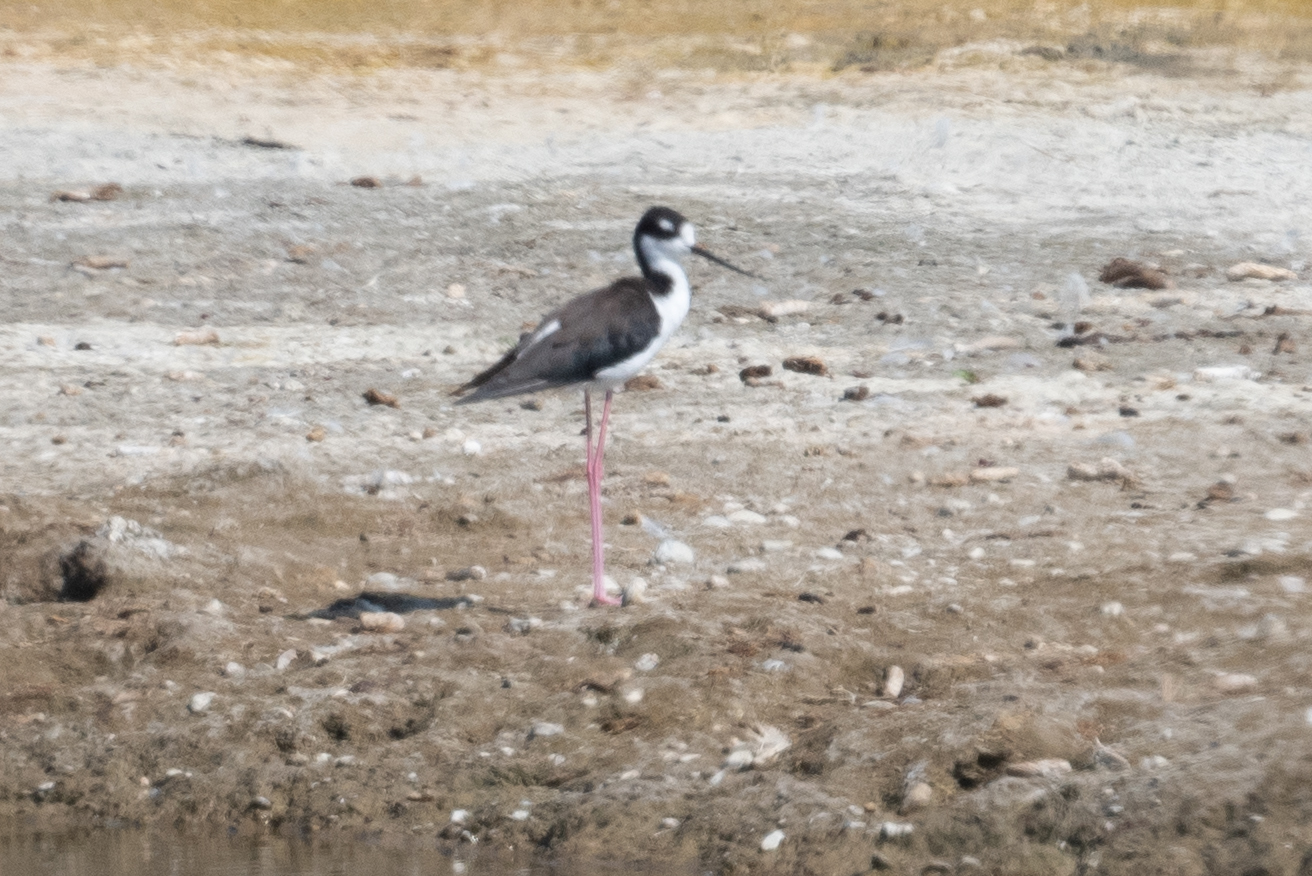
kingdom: Animalia
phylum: Chordata
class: Aves
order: Charadriiformes
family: Recurvirostridae
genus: Himantopus
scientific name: Himantopus mexicanus
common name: Black-necked stilt
